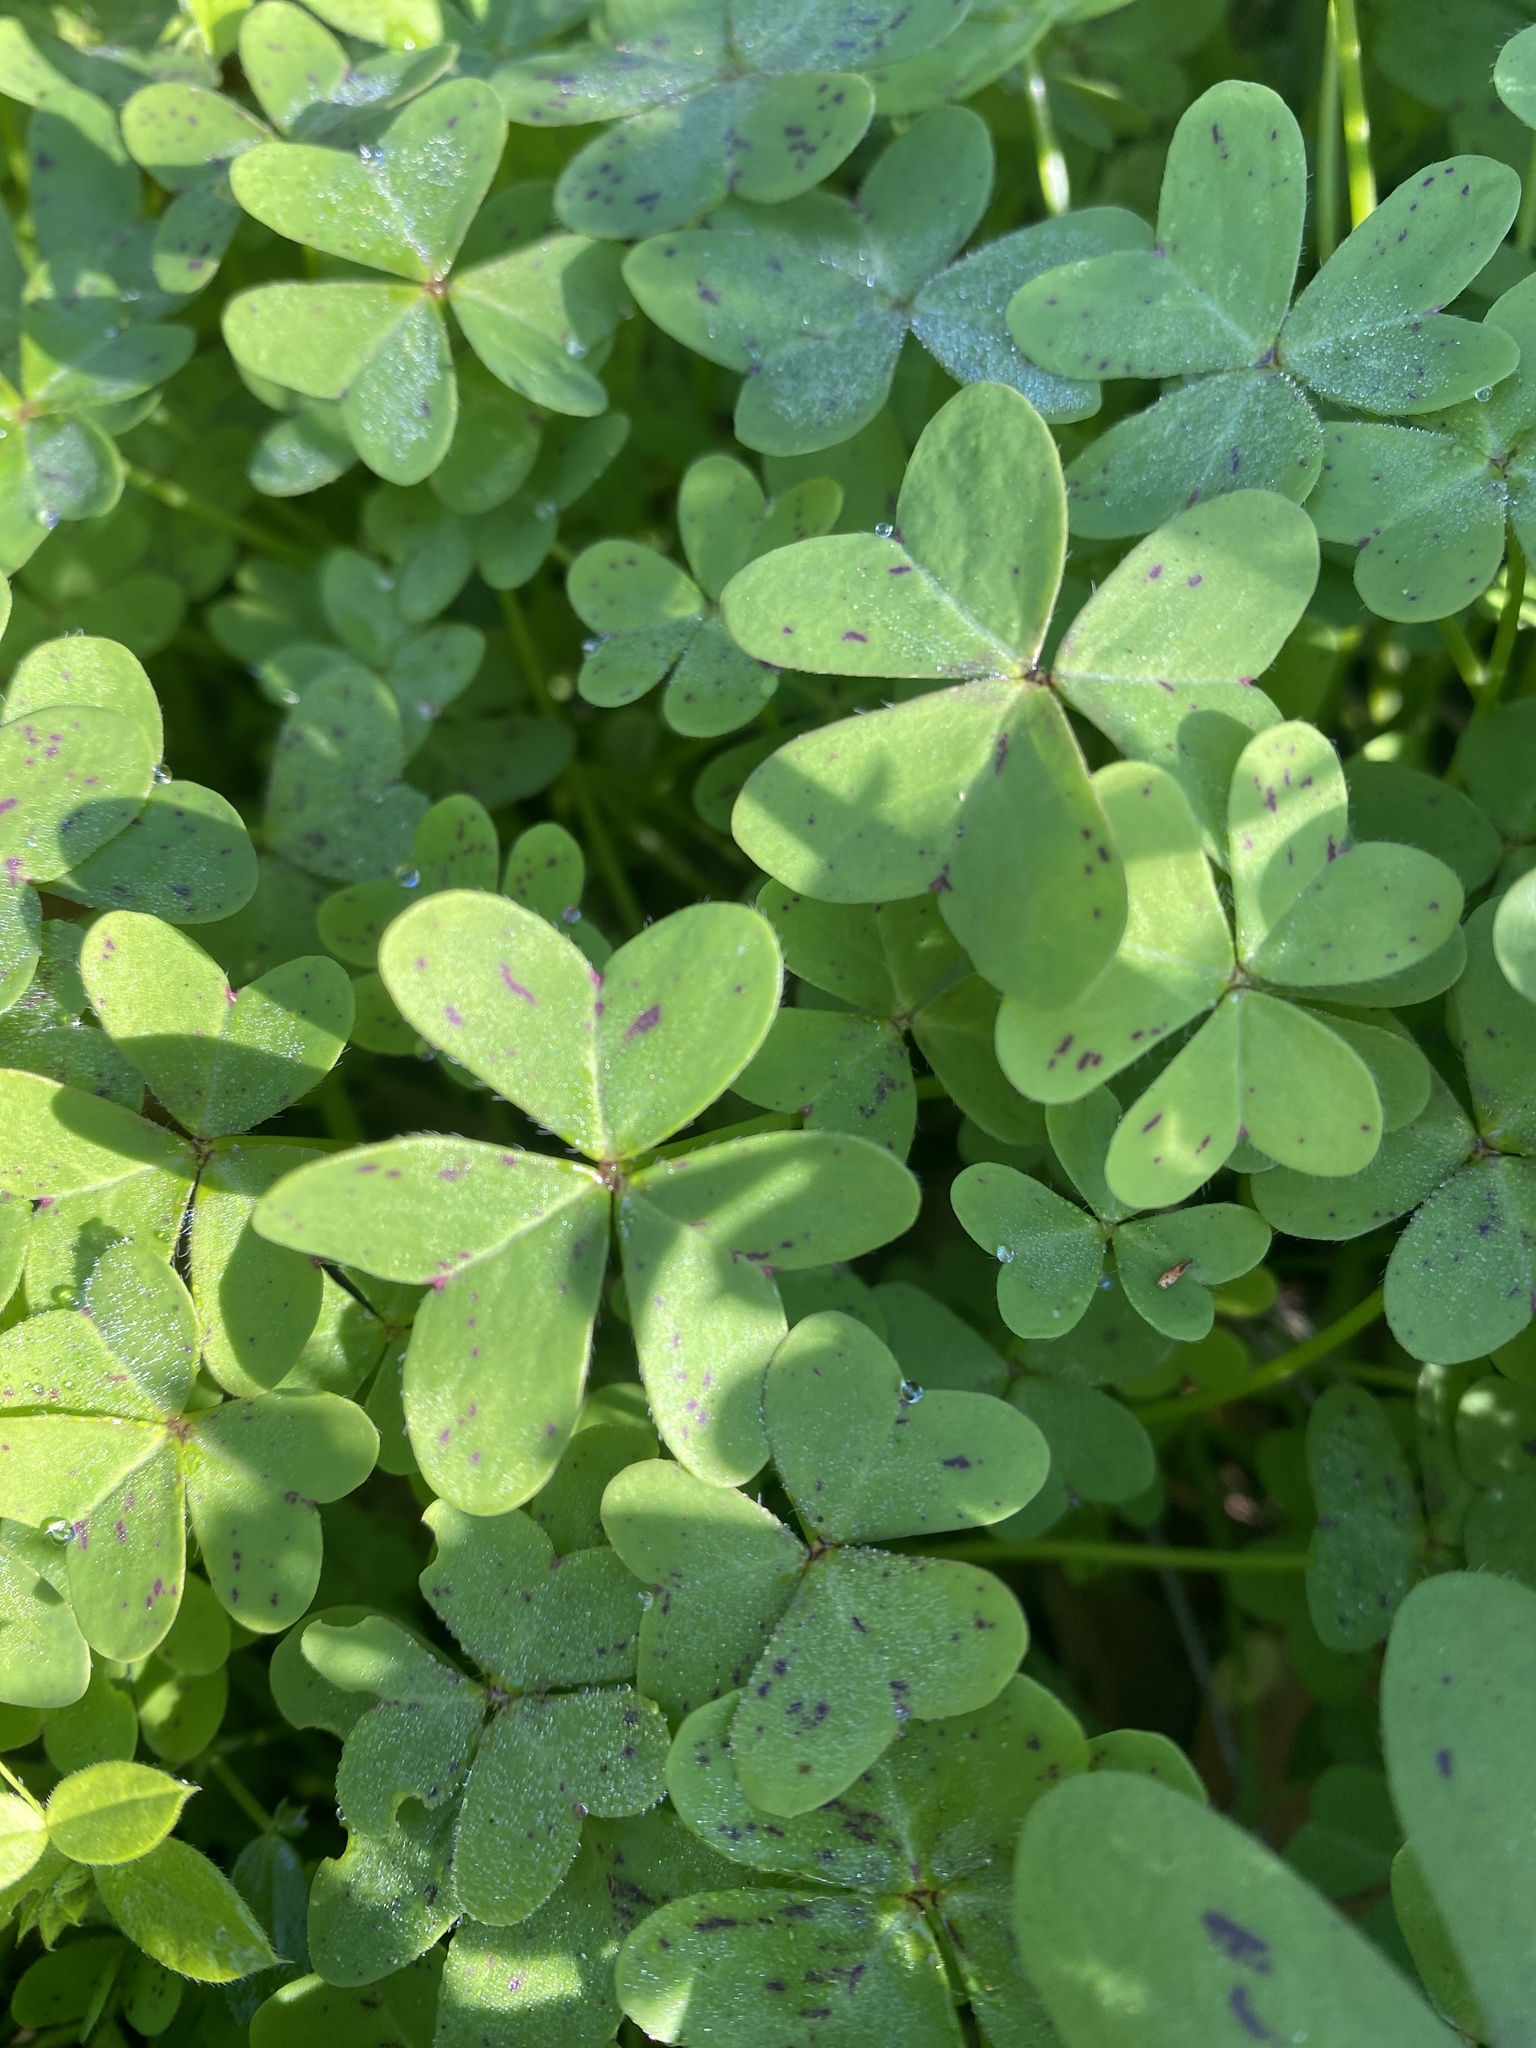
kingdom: Plantae
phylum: Tracheophyta
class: Magnoliopsida
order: Oxalidales
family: Oxalidaceae
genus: Oxalis
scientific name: Oxalis pes-caprae
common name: Bermuda-buttercup
